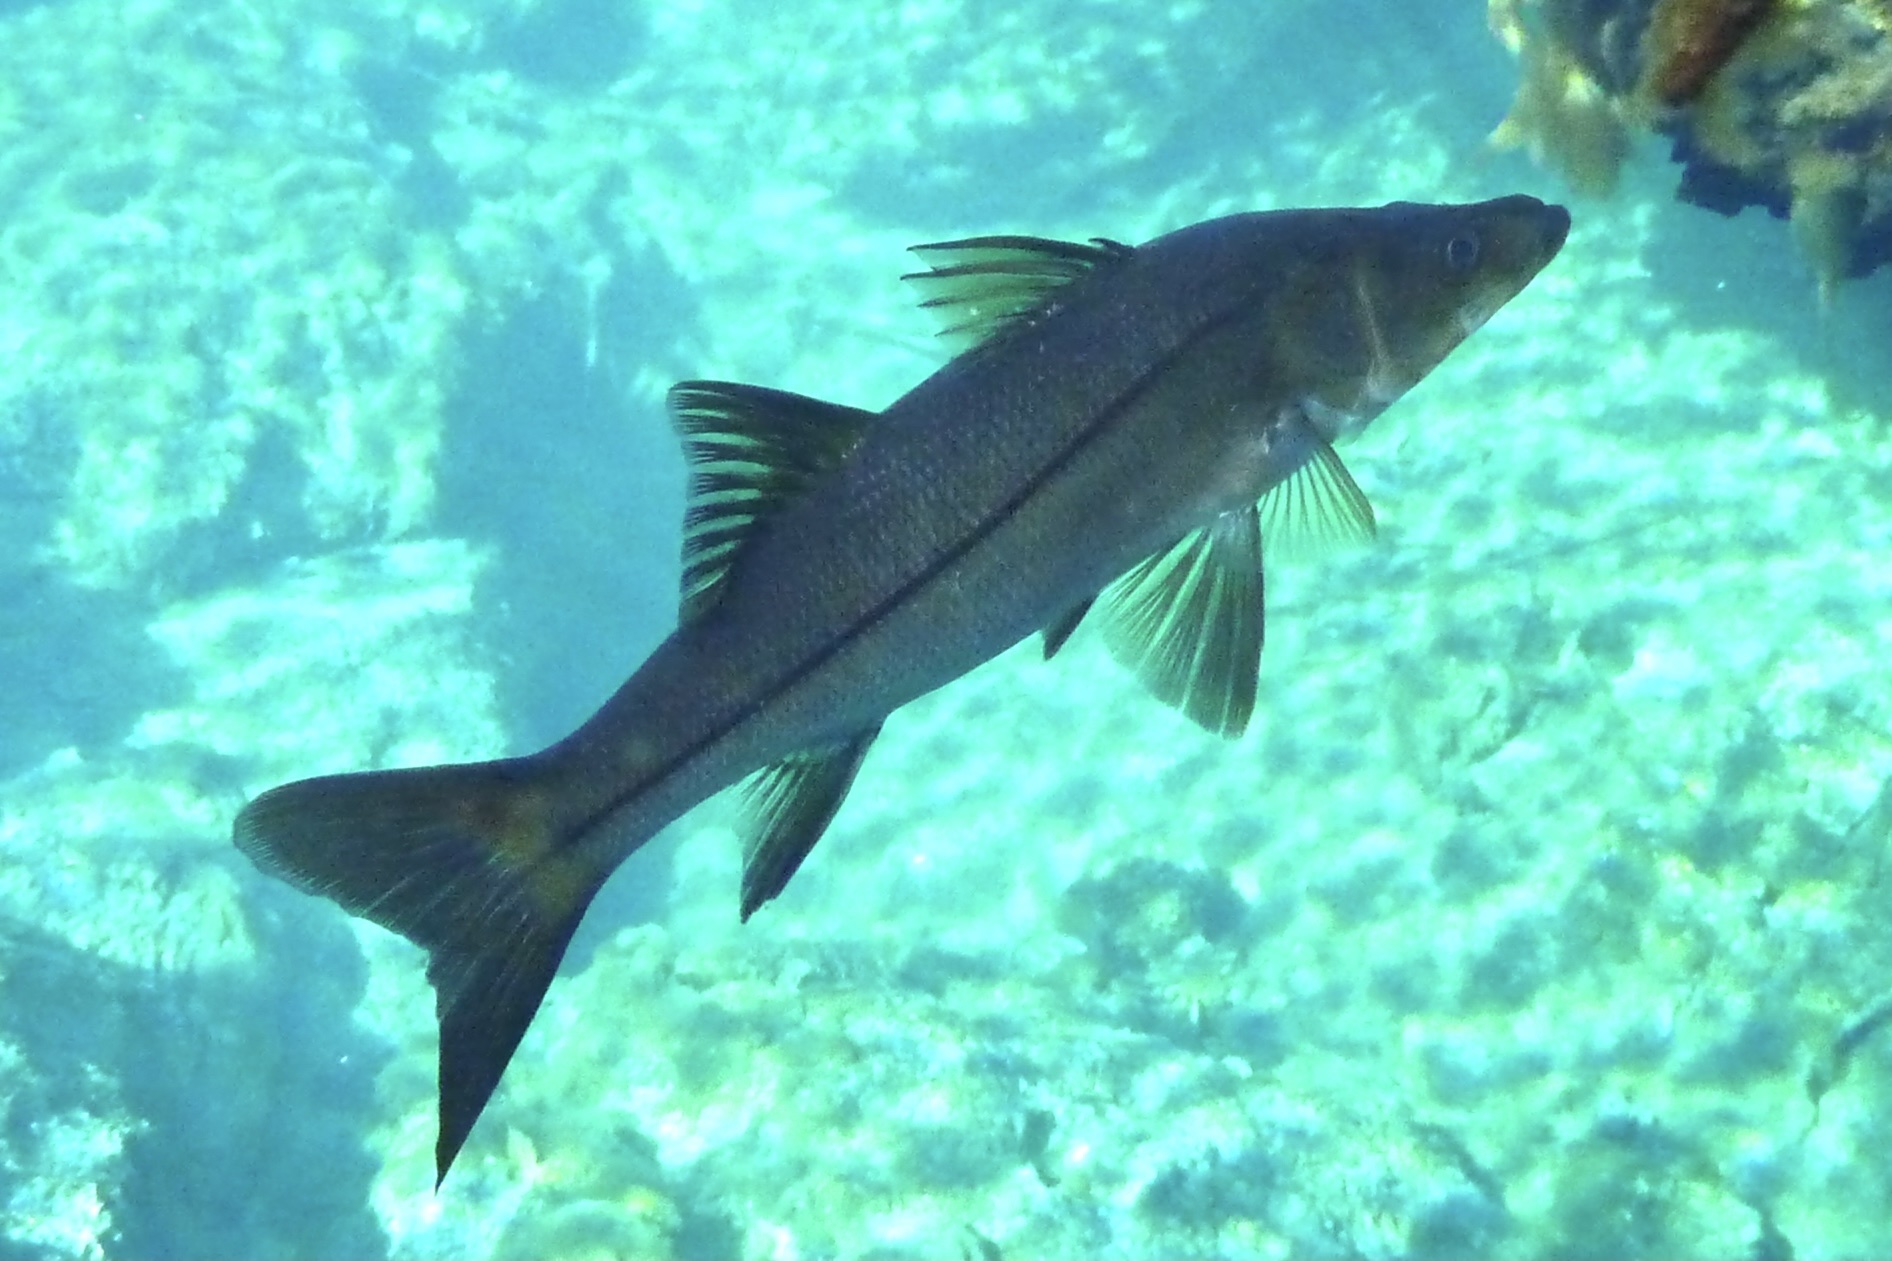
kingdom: Animalia
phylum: Chordata
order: Perciformes
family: Centropomidae
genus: Centropomus
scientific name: Centropomus undecimalis
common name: Snook
